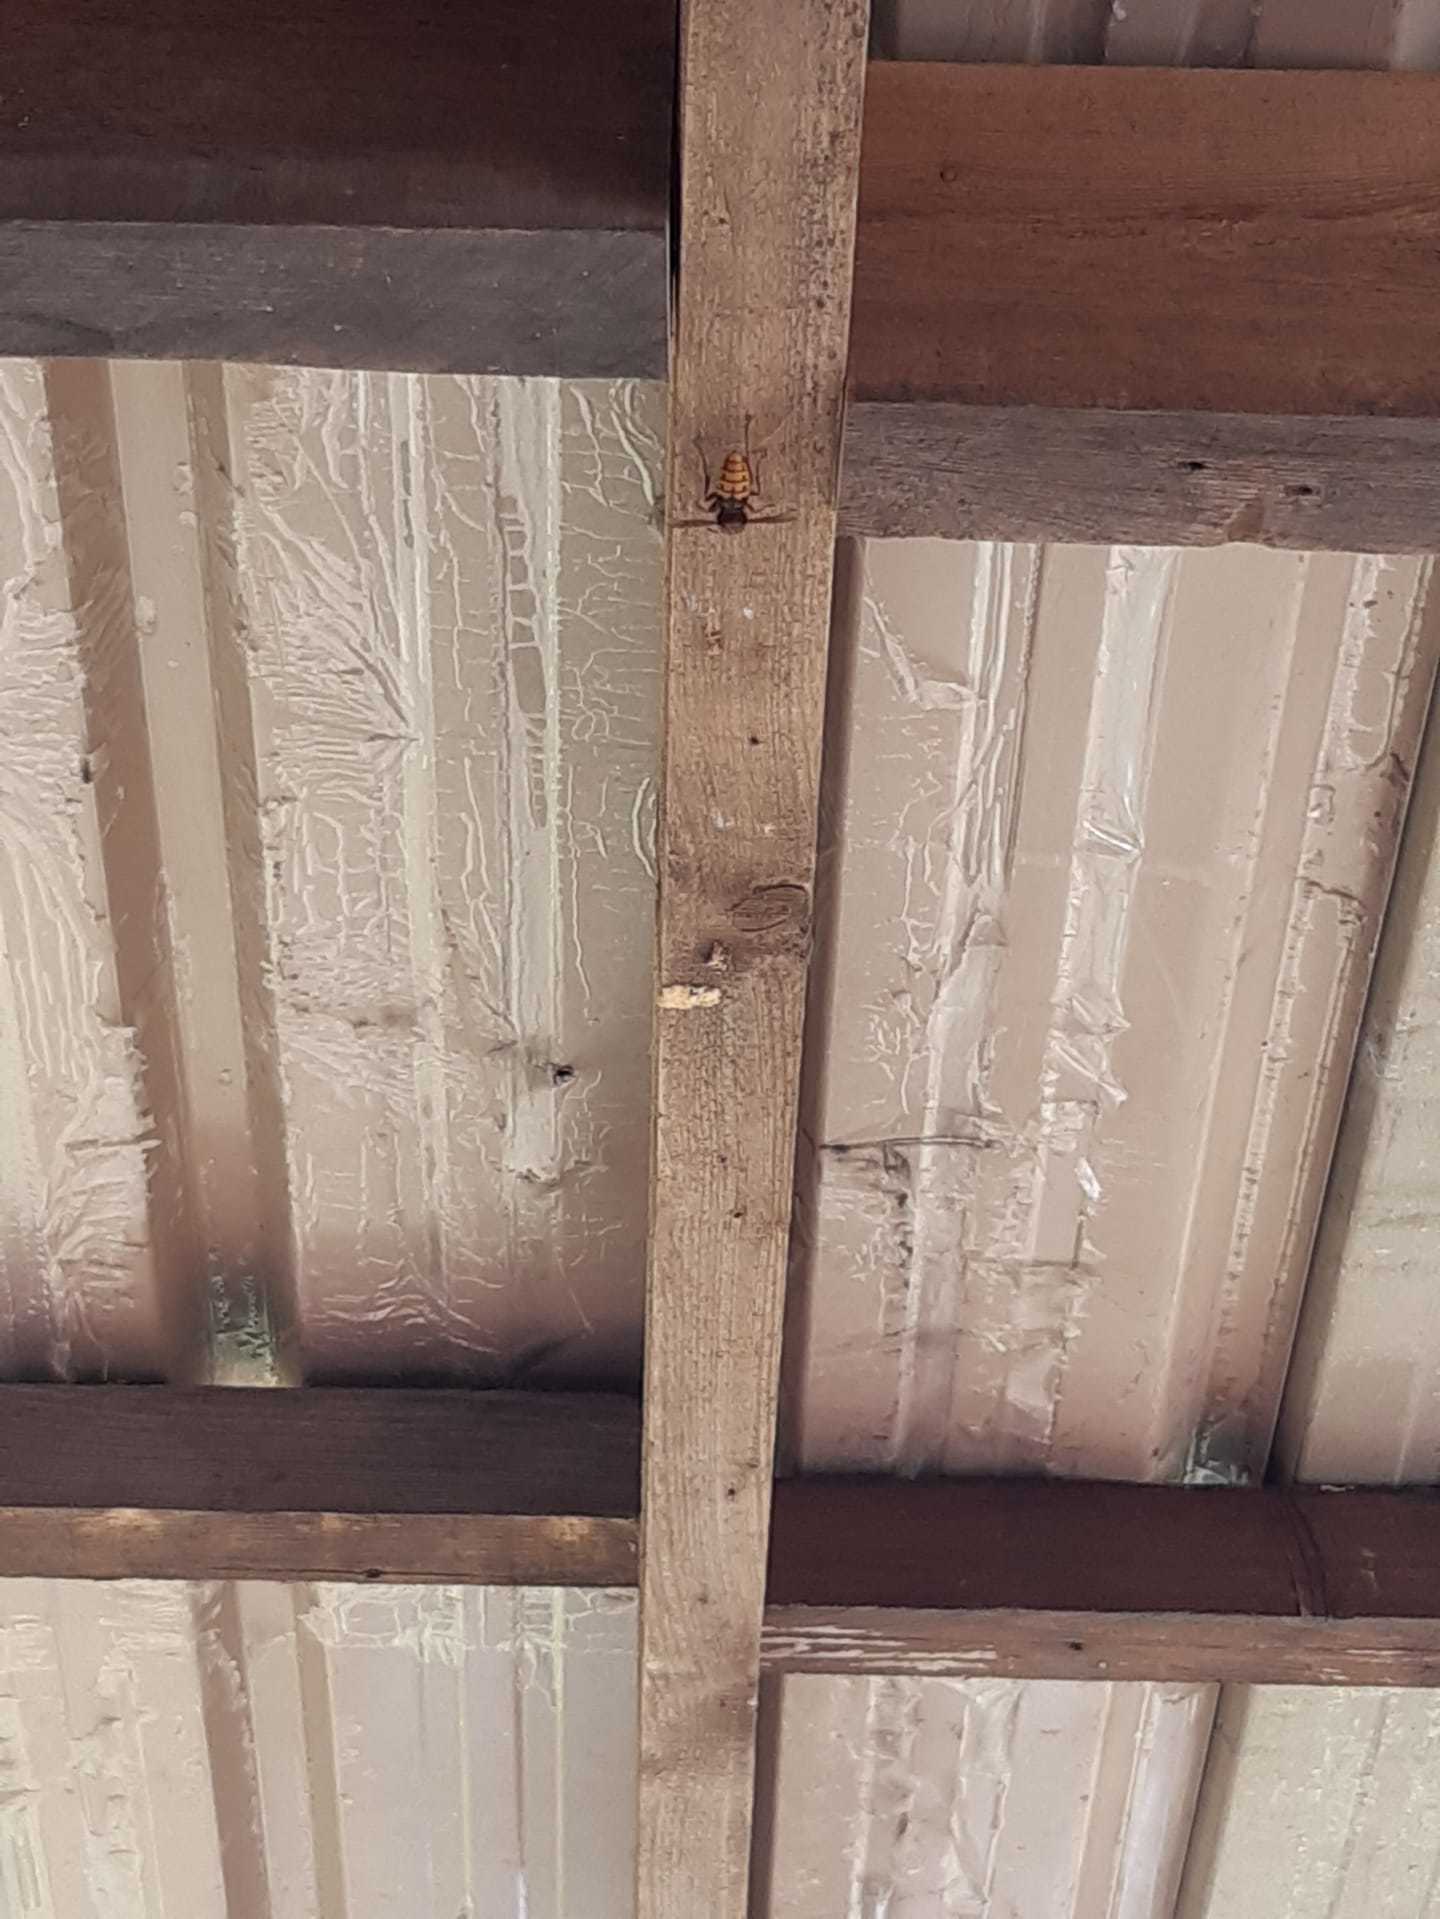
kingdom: Animalia
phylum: Arthropoda
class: Insecta
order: Hymenoptera
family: Vespidae
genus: Vespa
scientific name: Vespa crabro
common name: Hornet
